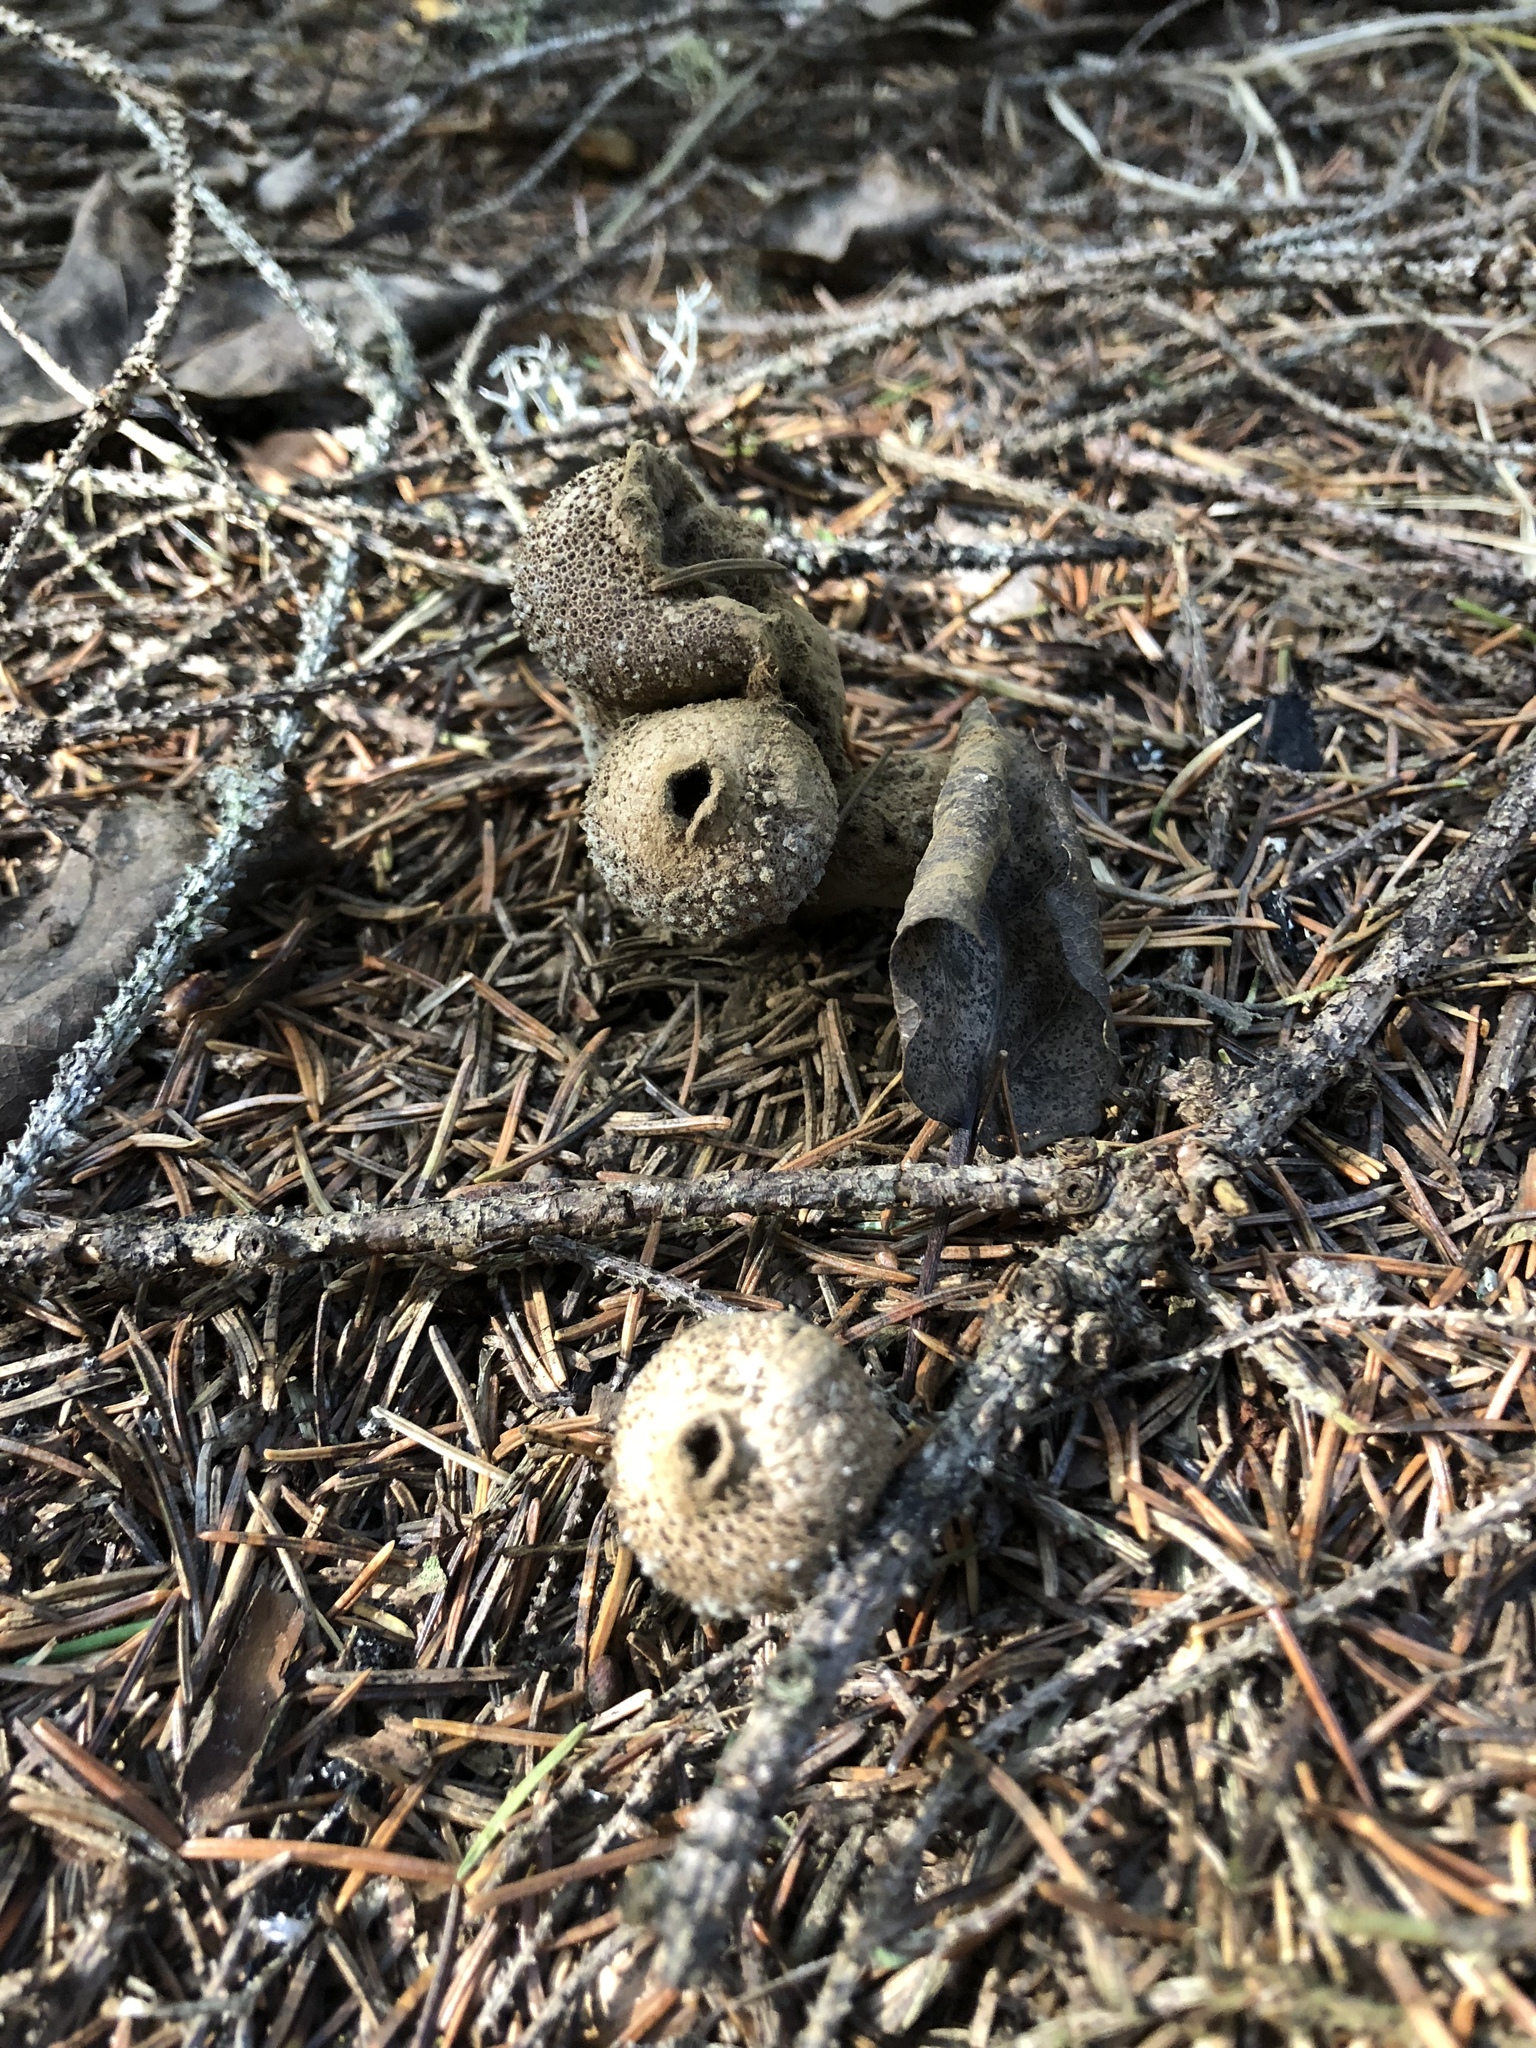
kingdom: Fungi
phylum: Basidiomycota
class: Agaricomycetes
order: Agaricales
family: Lycoperdaceae
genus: Lycoperdon
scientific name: Lycoperdon perlatum
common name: Common puffball
